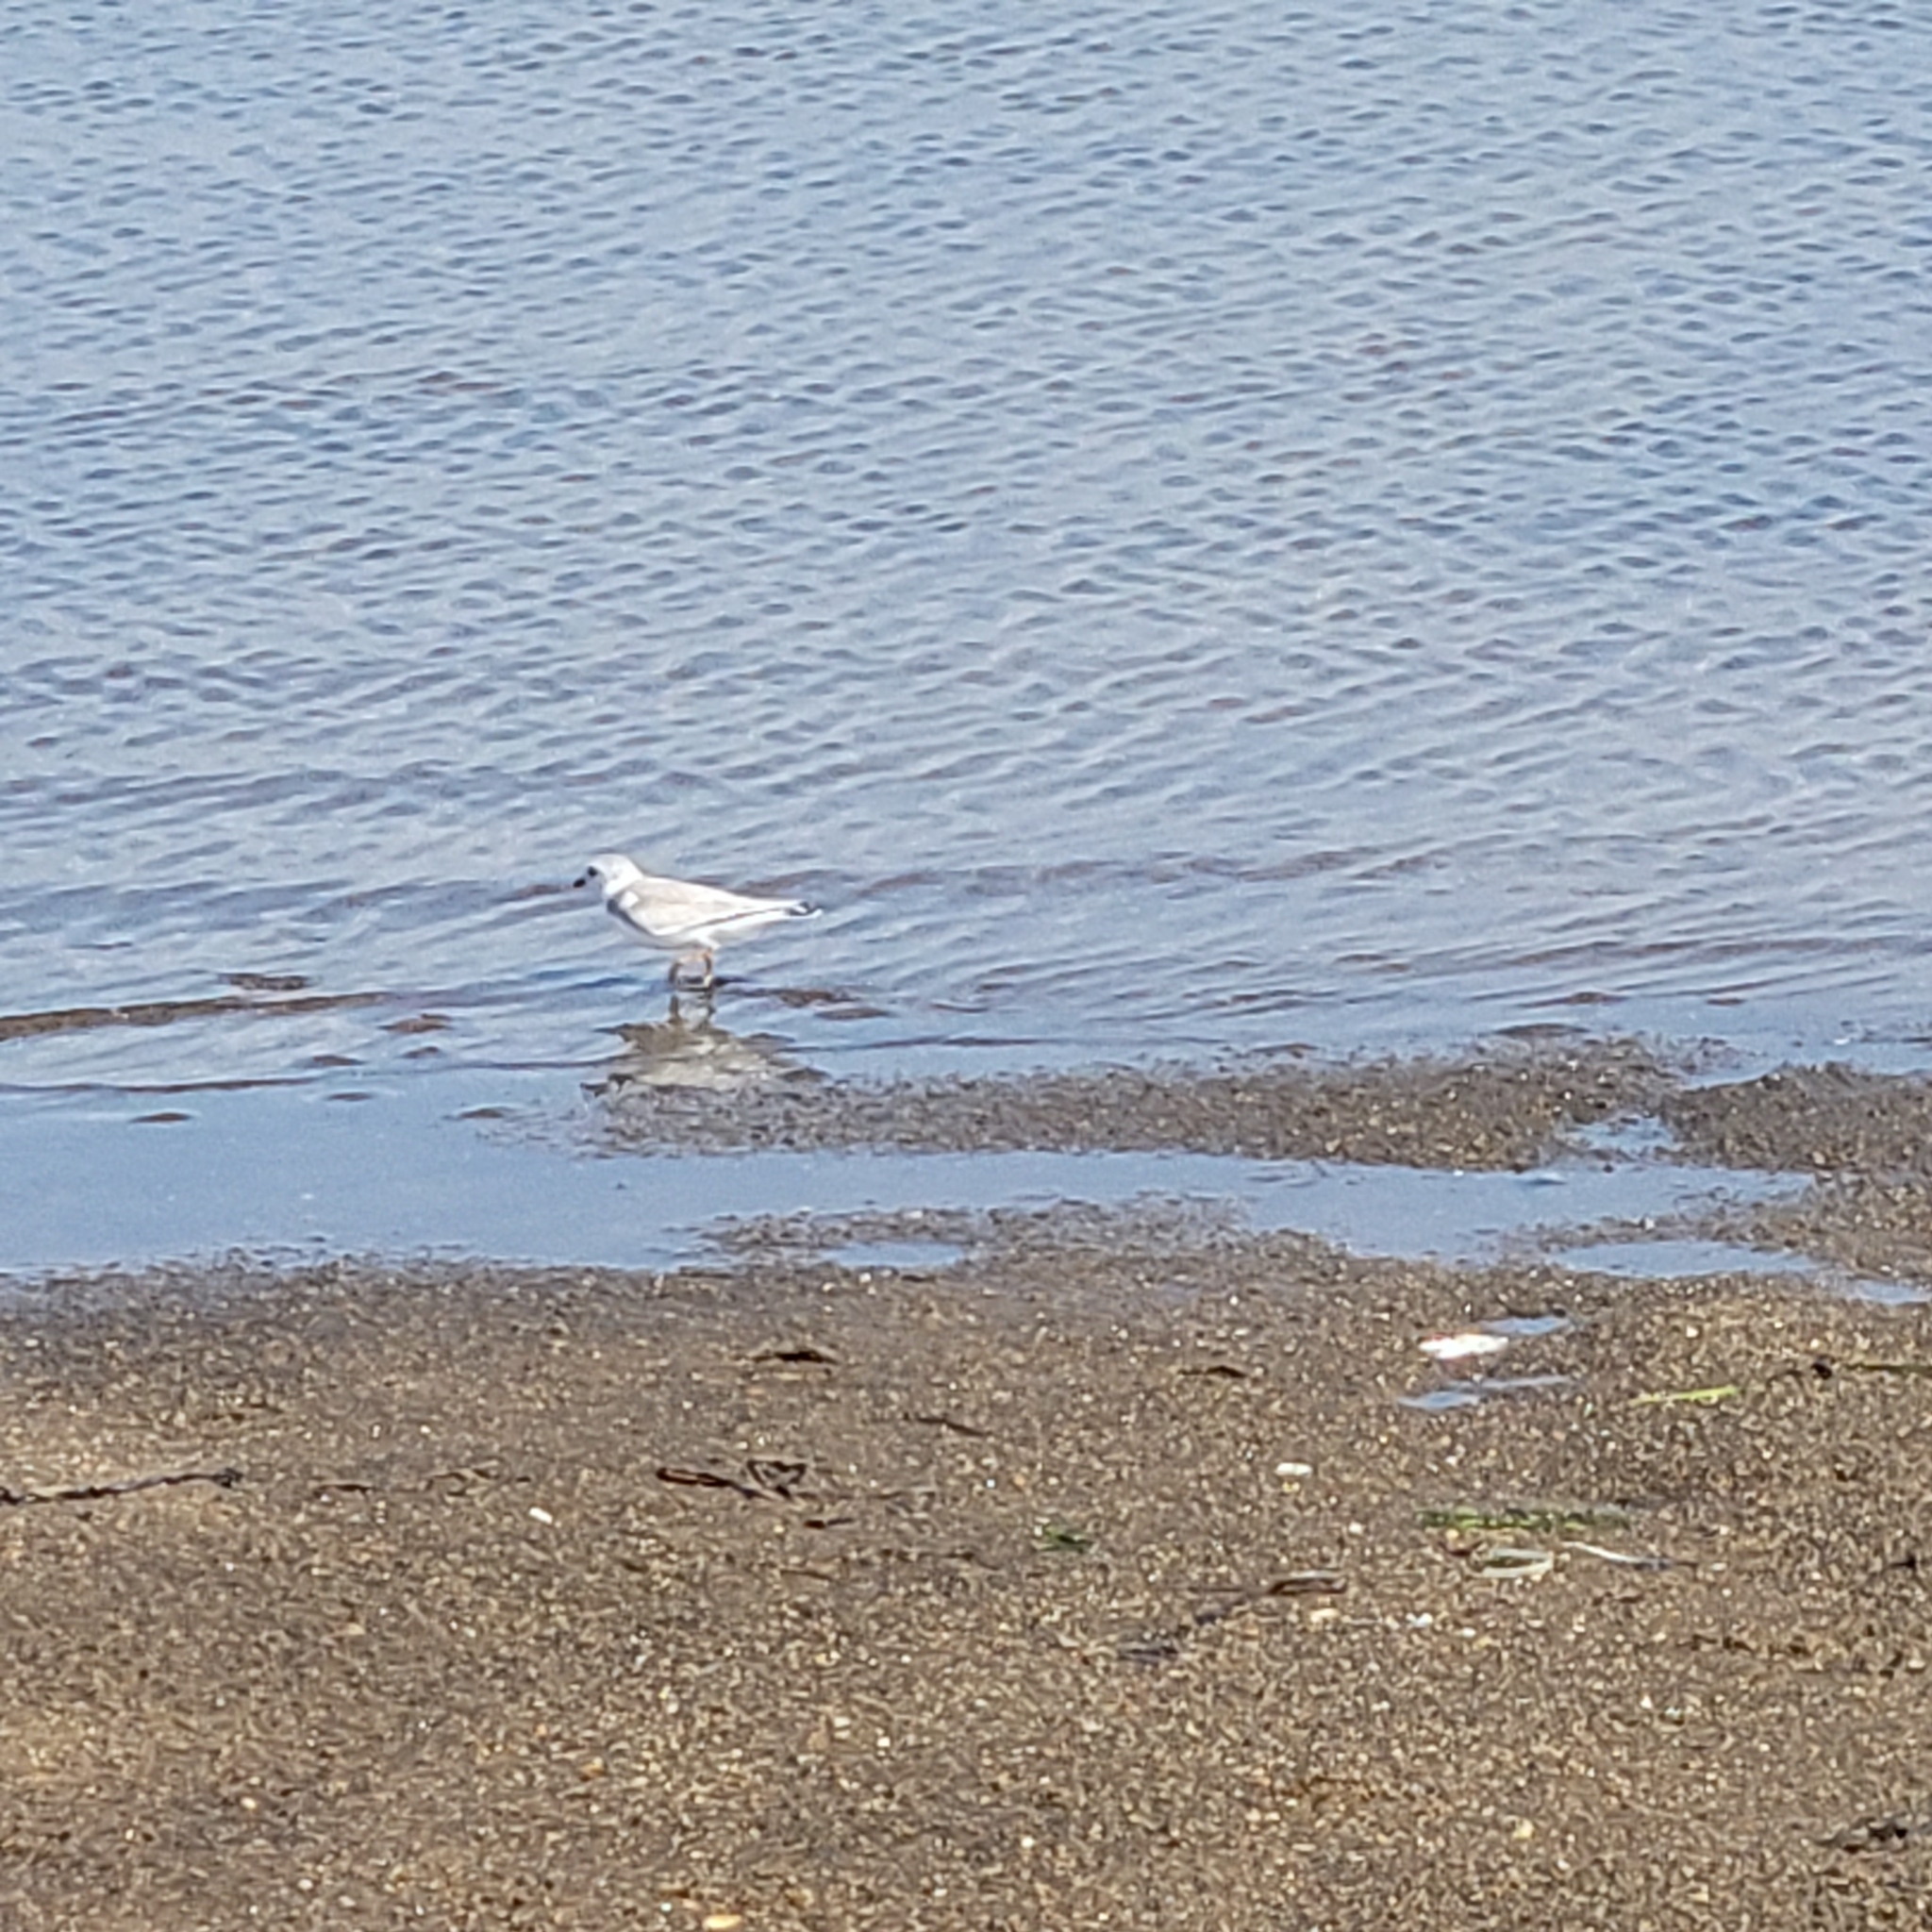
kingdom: Animalia
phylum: Chordata
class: Aves
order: Charadriiformes
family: Charadriidae
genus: Charadrius
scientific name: Charadrius melodus
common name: Piping plover
